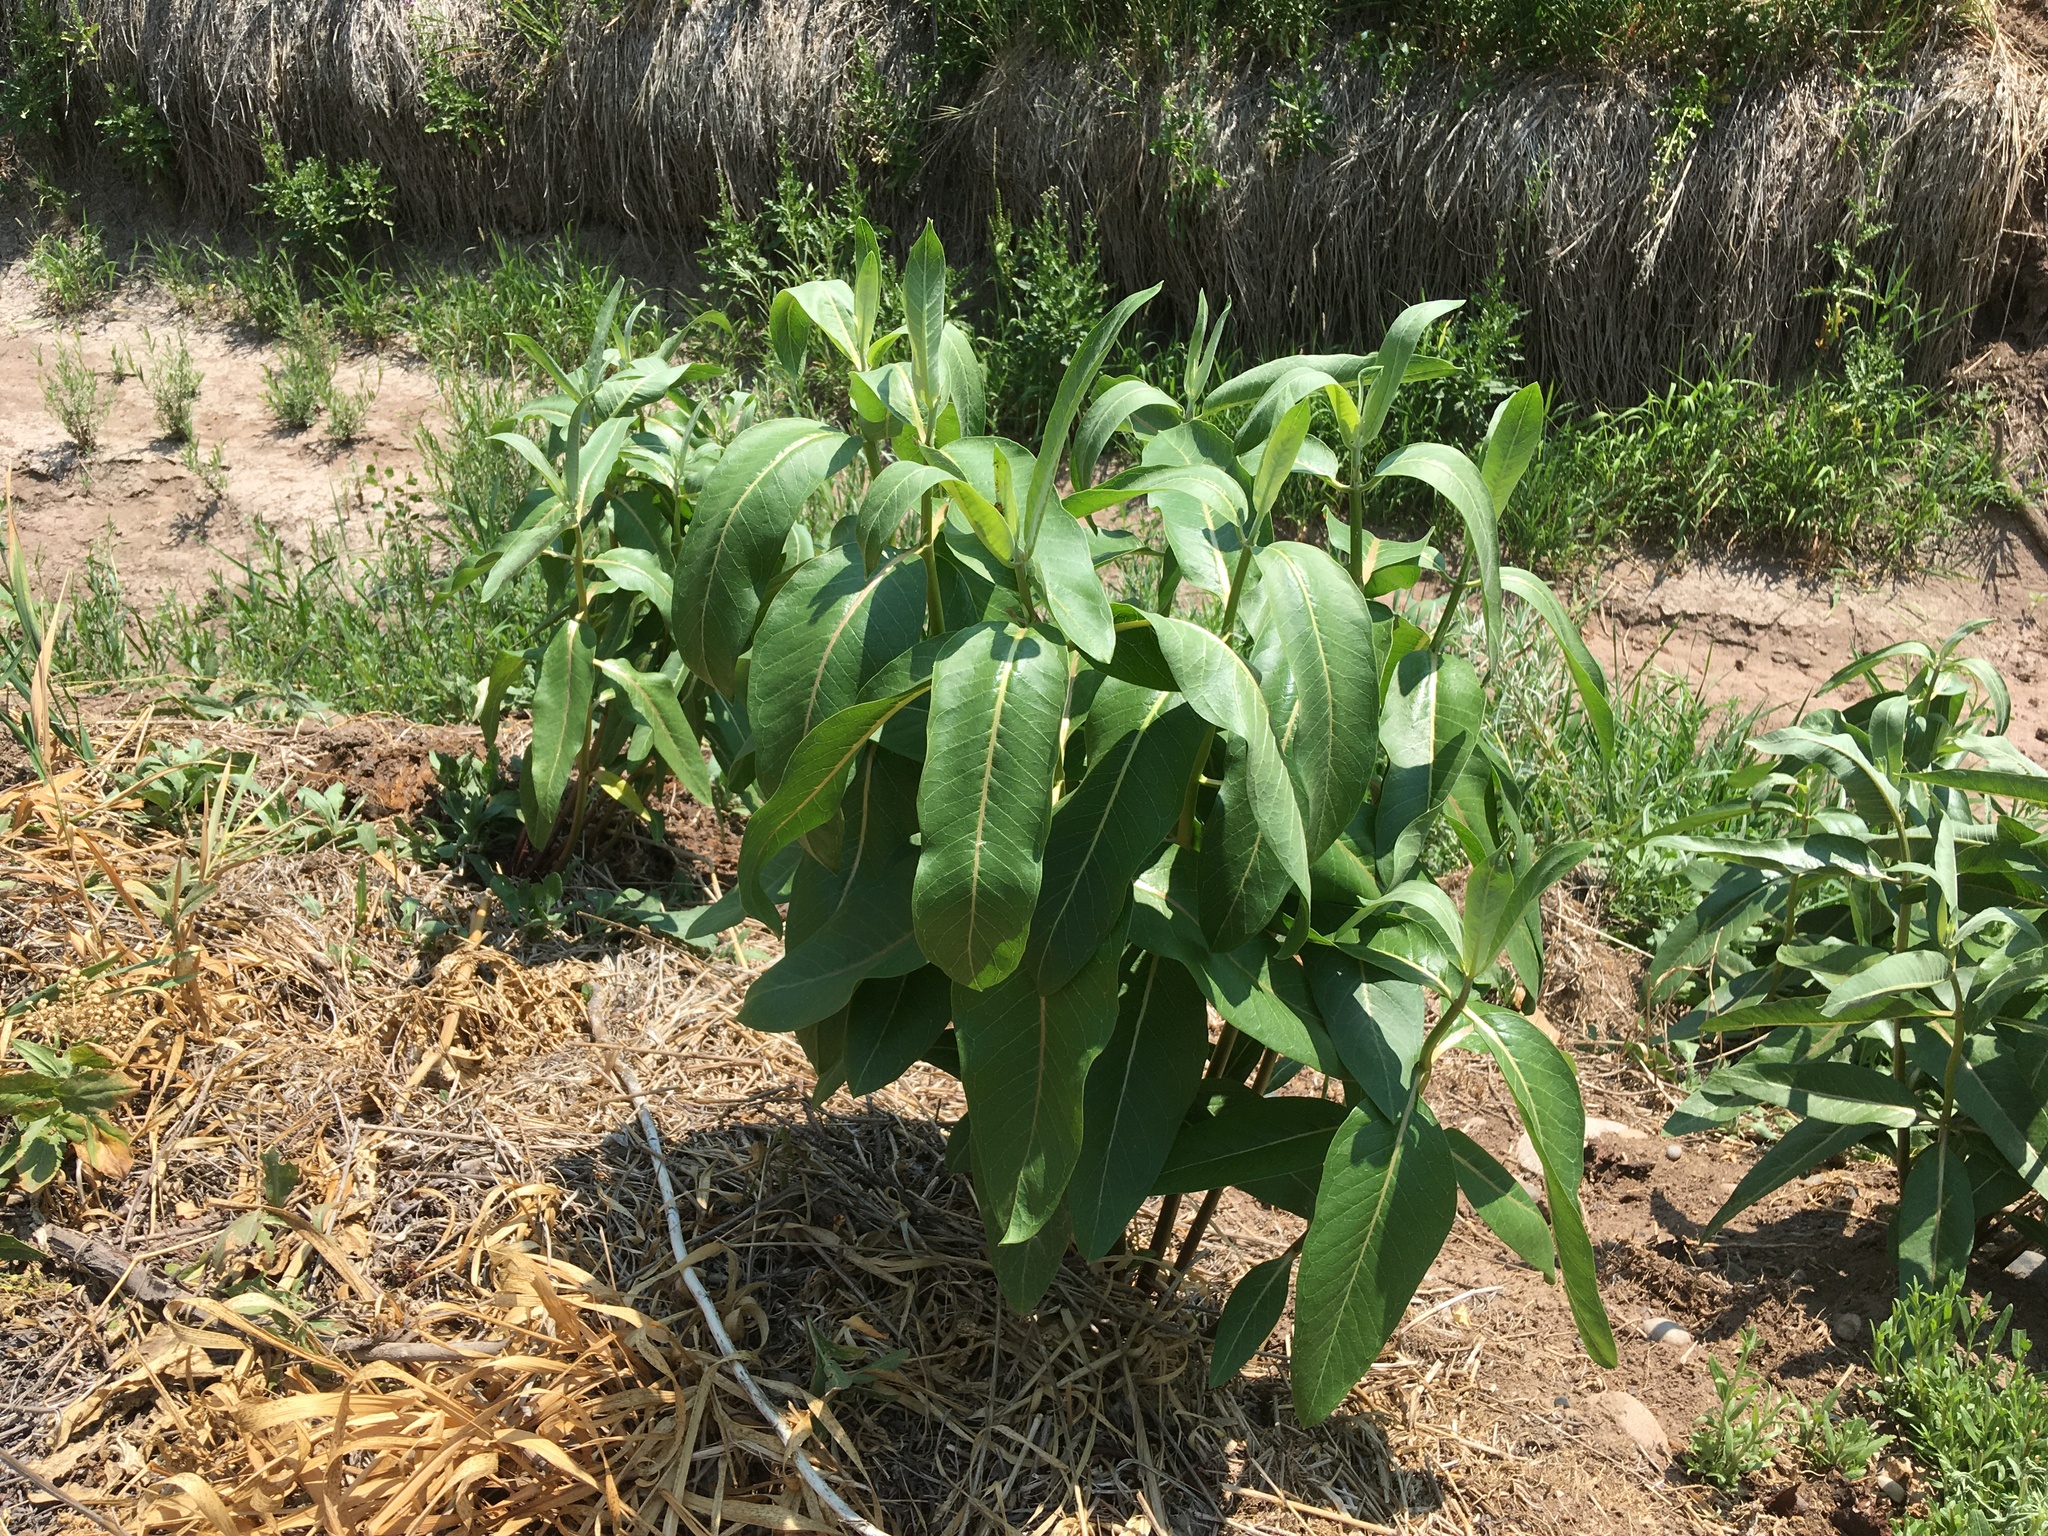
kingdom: Plantae
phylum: Tracheophyta
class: Magnoliopsida
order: Gentianales
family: Apocynaceae
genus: Asclepias
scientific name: Asclepias speciosa
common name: Showy milkweed
